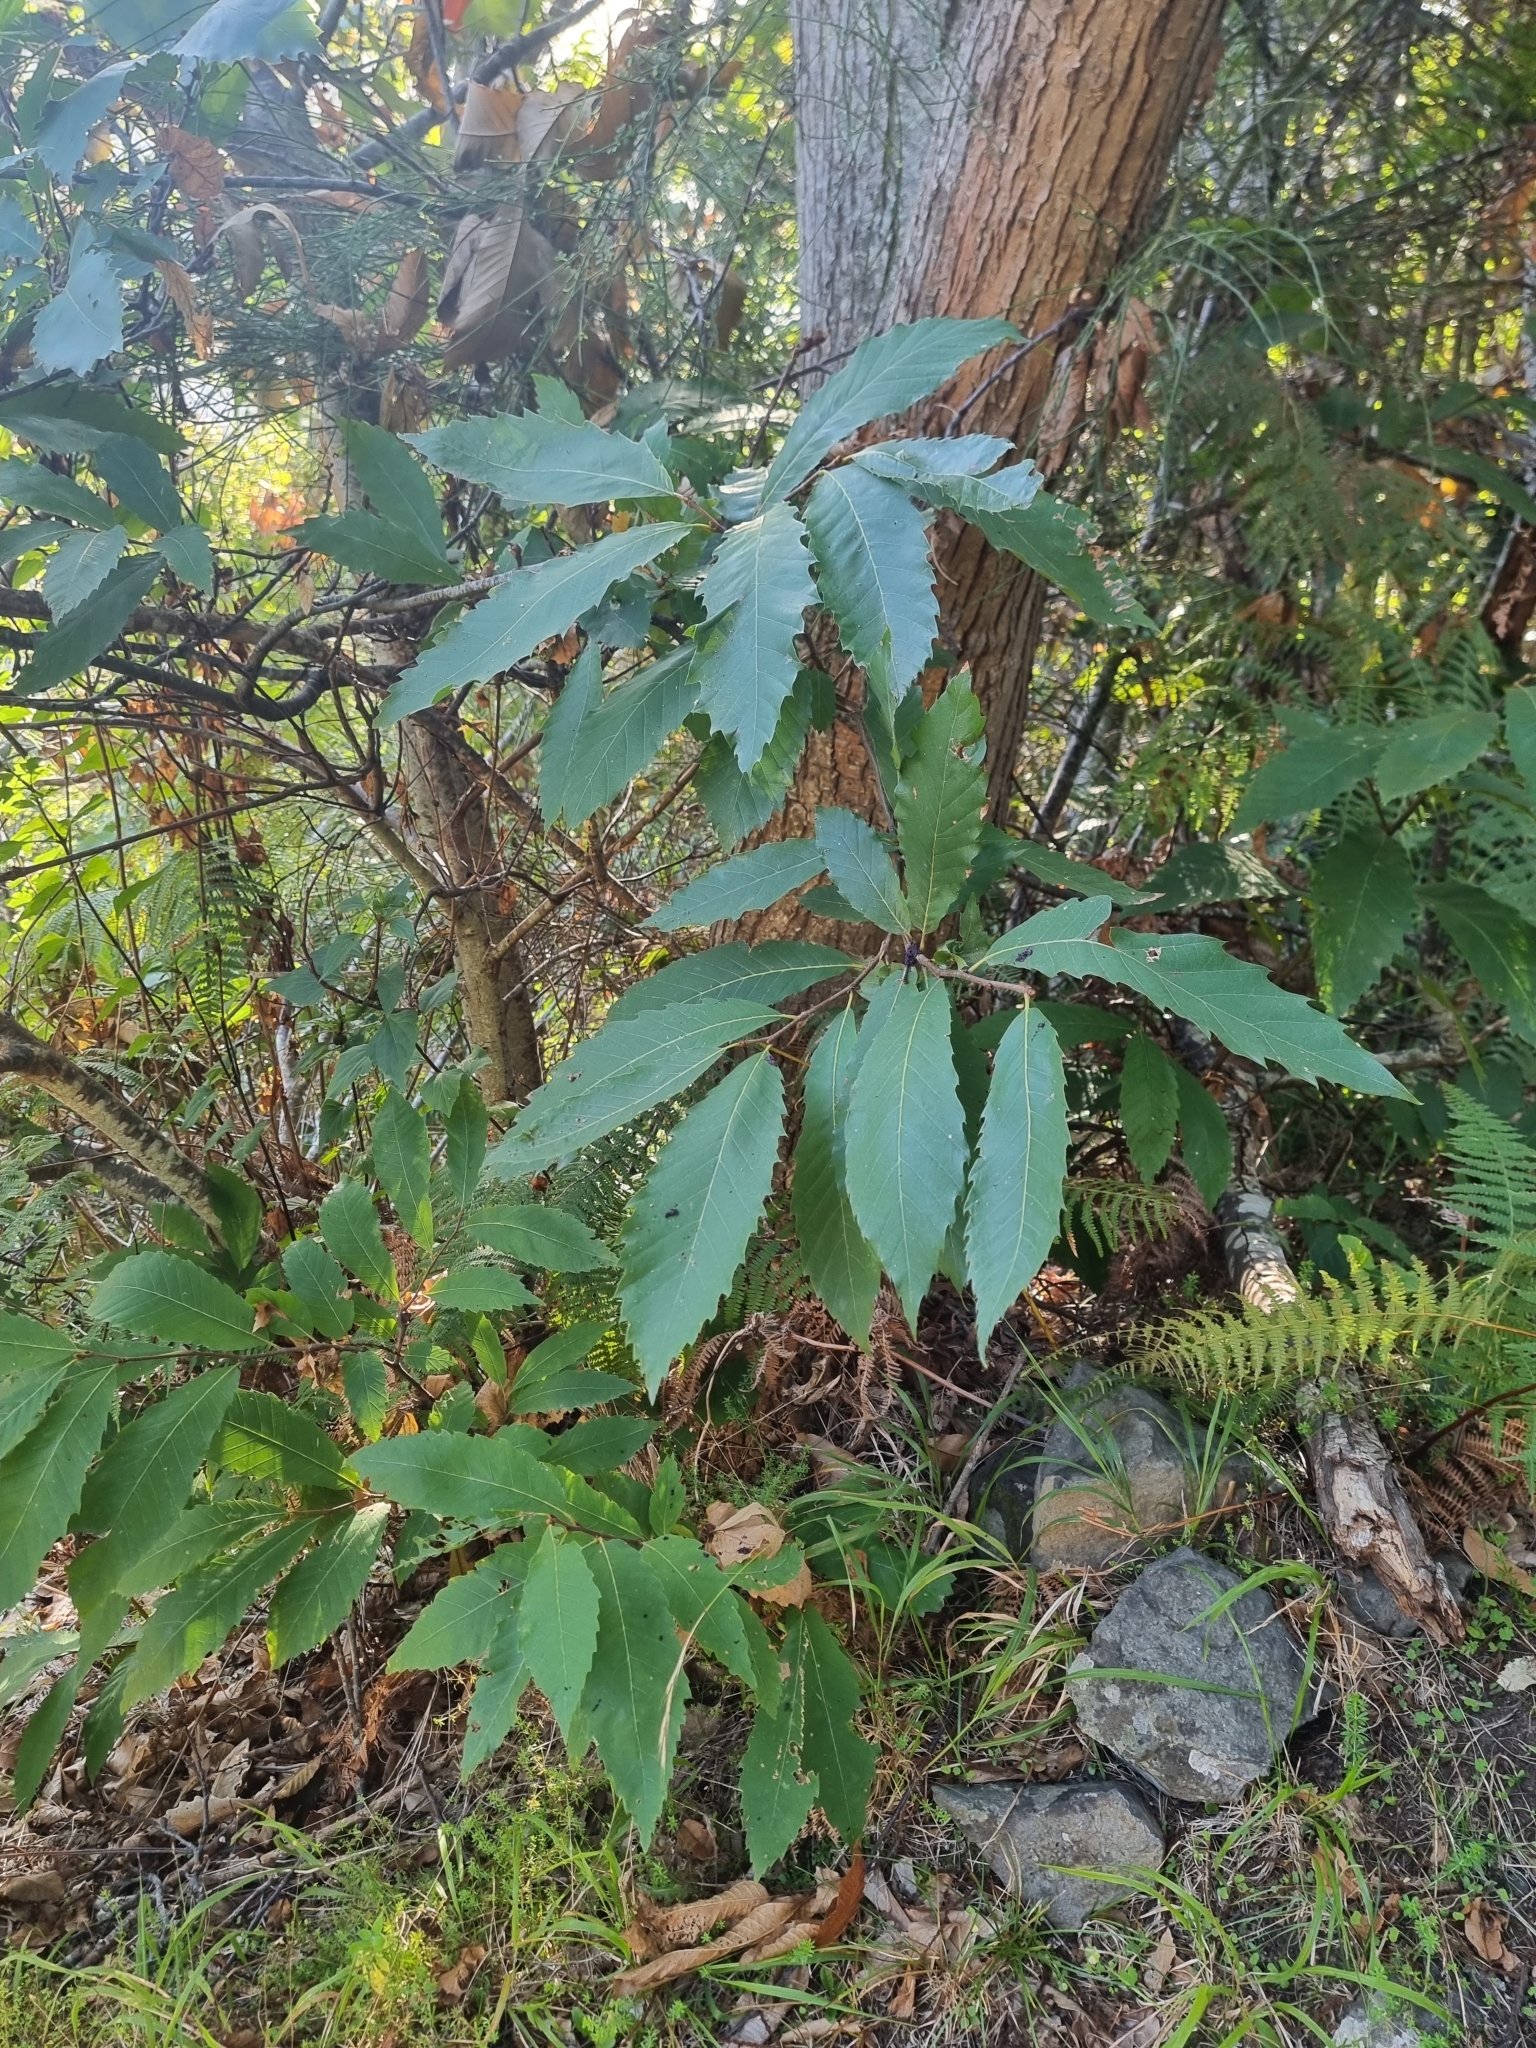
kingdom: Plantae
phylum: Tracheophyta
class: Magnoliopsida
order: Fagales
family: Fagaceae
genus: Castanea
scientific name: Castanea sativa
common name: Sweet chestnut
